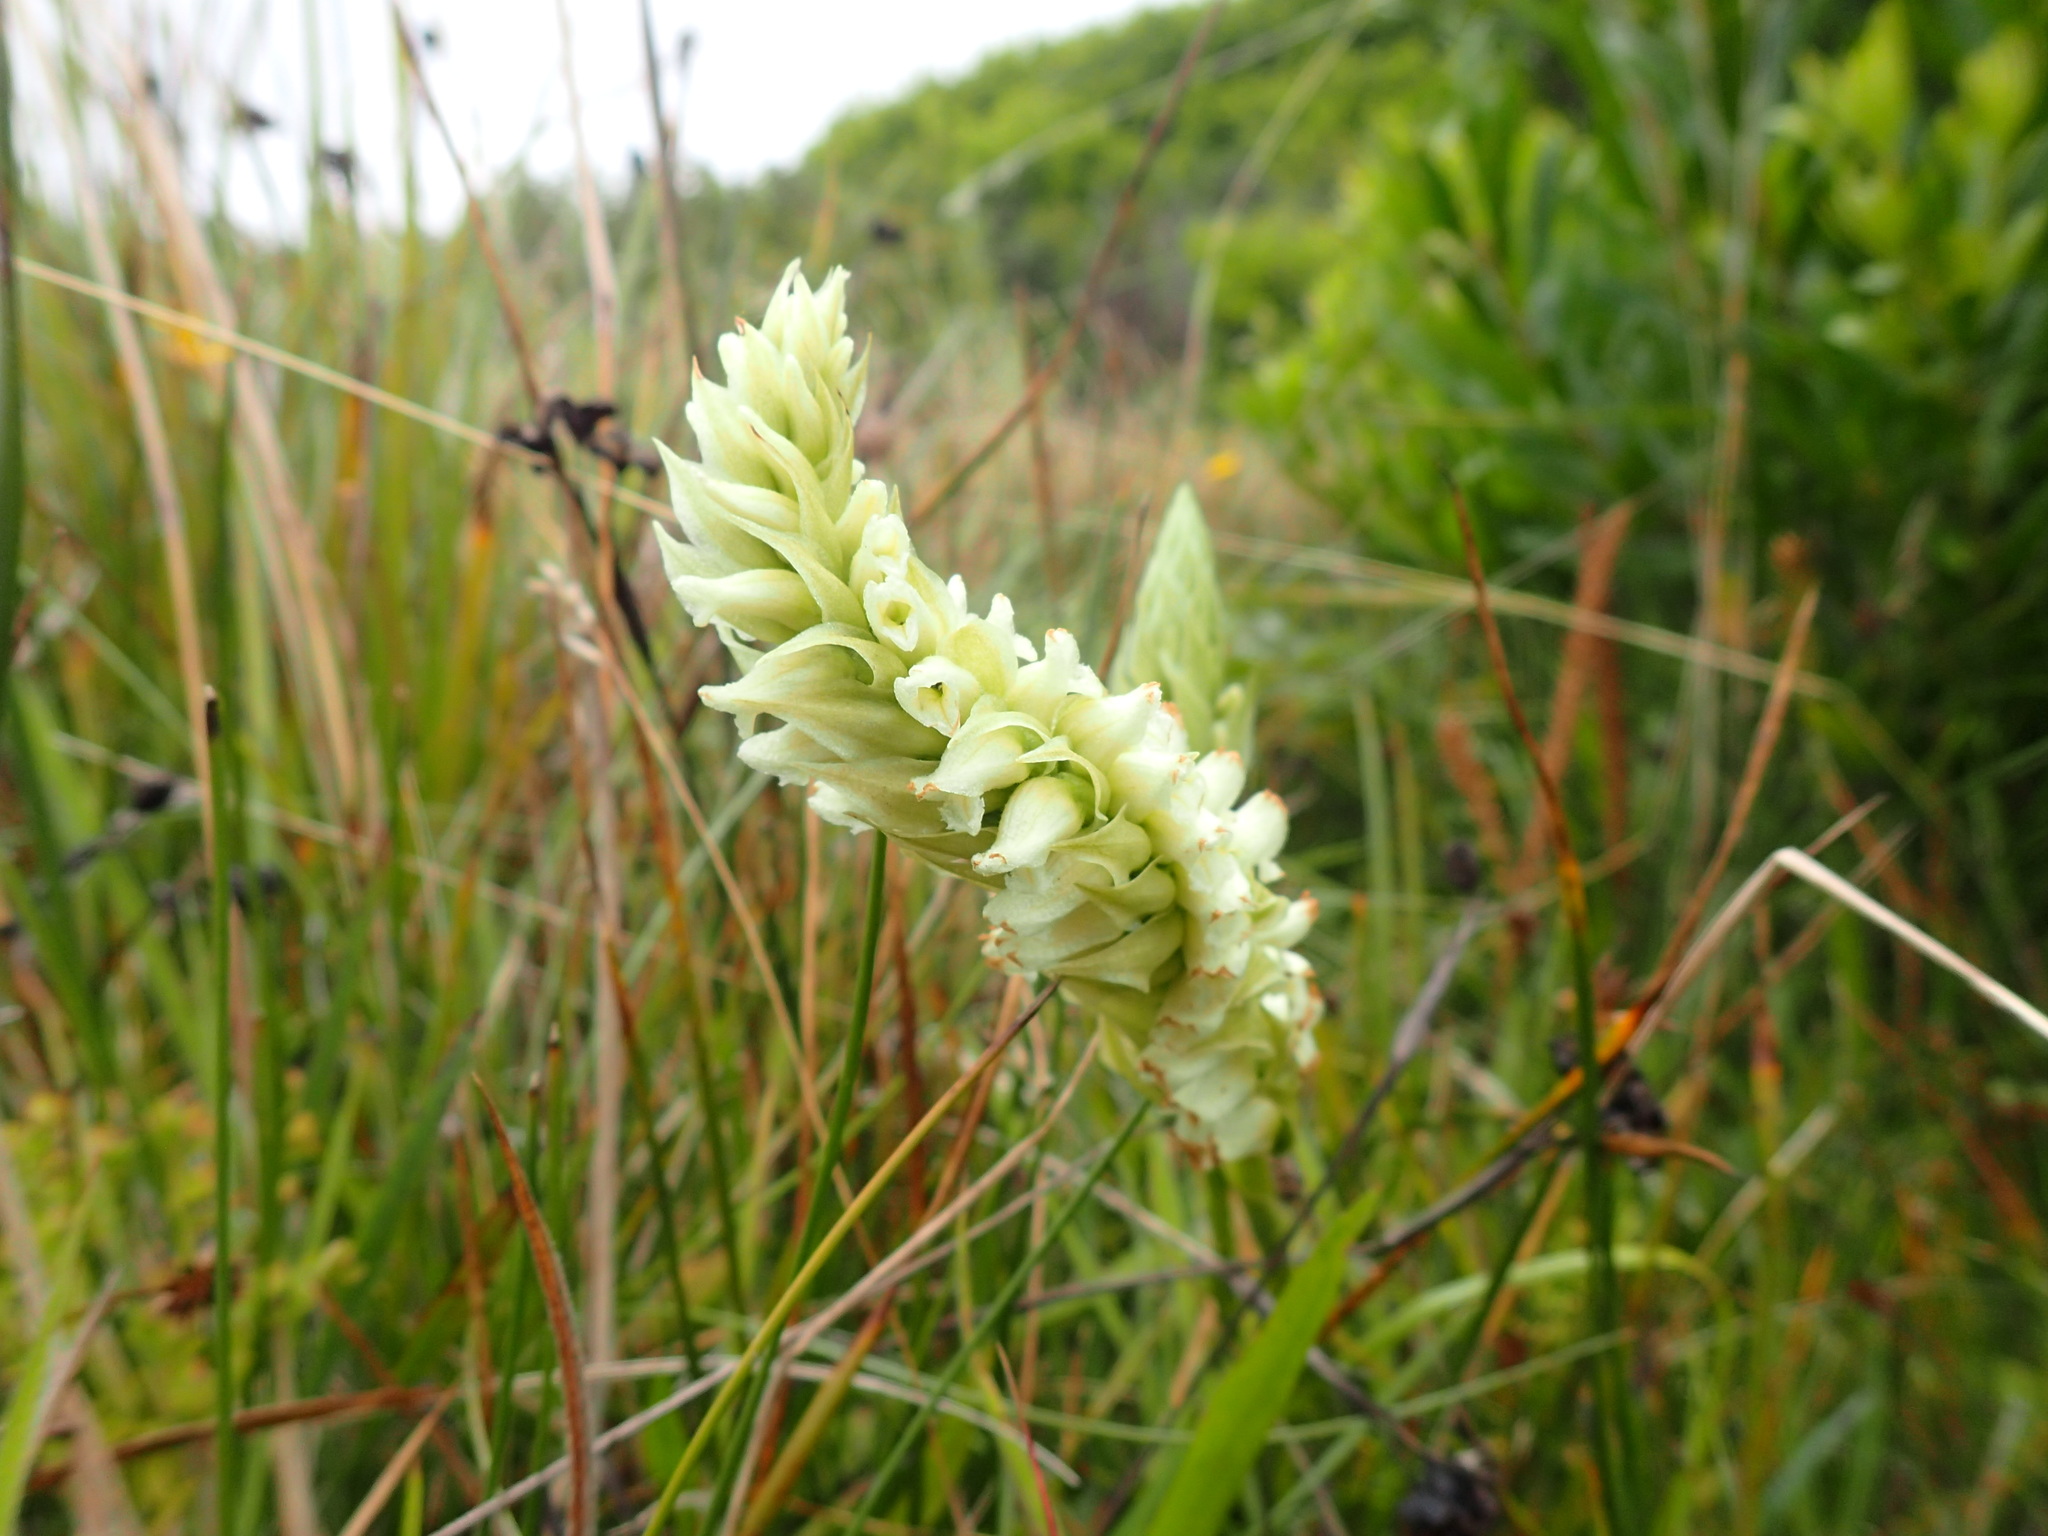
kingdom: Plantae
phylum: Tracheophyta
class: Liliopsida
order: Asparagales
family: Orchidaceae
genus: Spiranthes
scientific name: Spiranthes romanzoffiana
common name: Irish lady's-tresses
